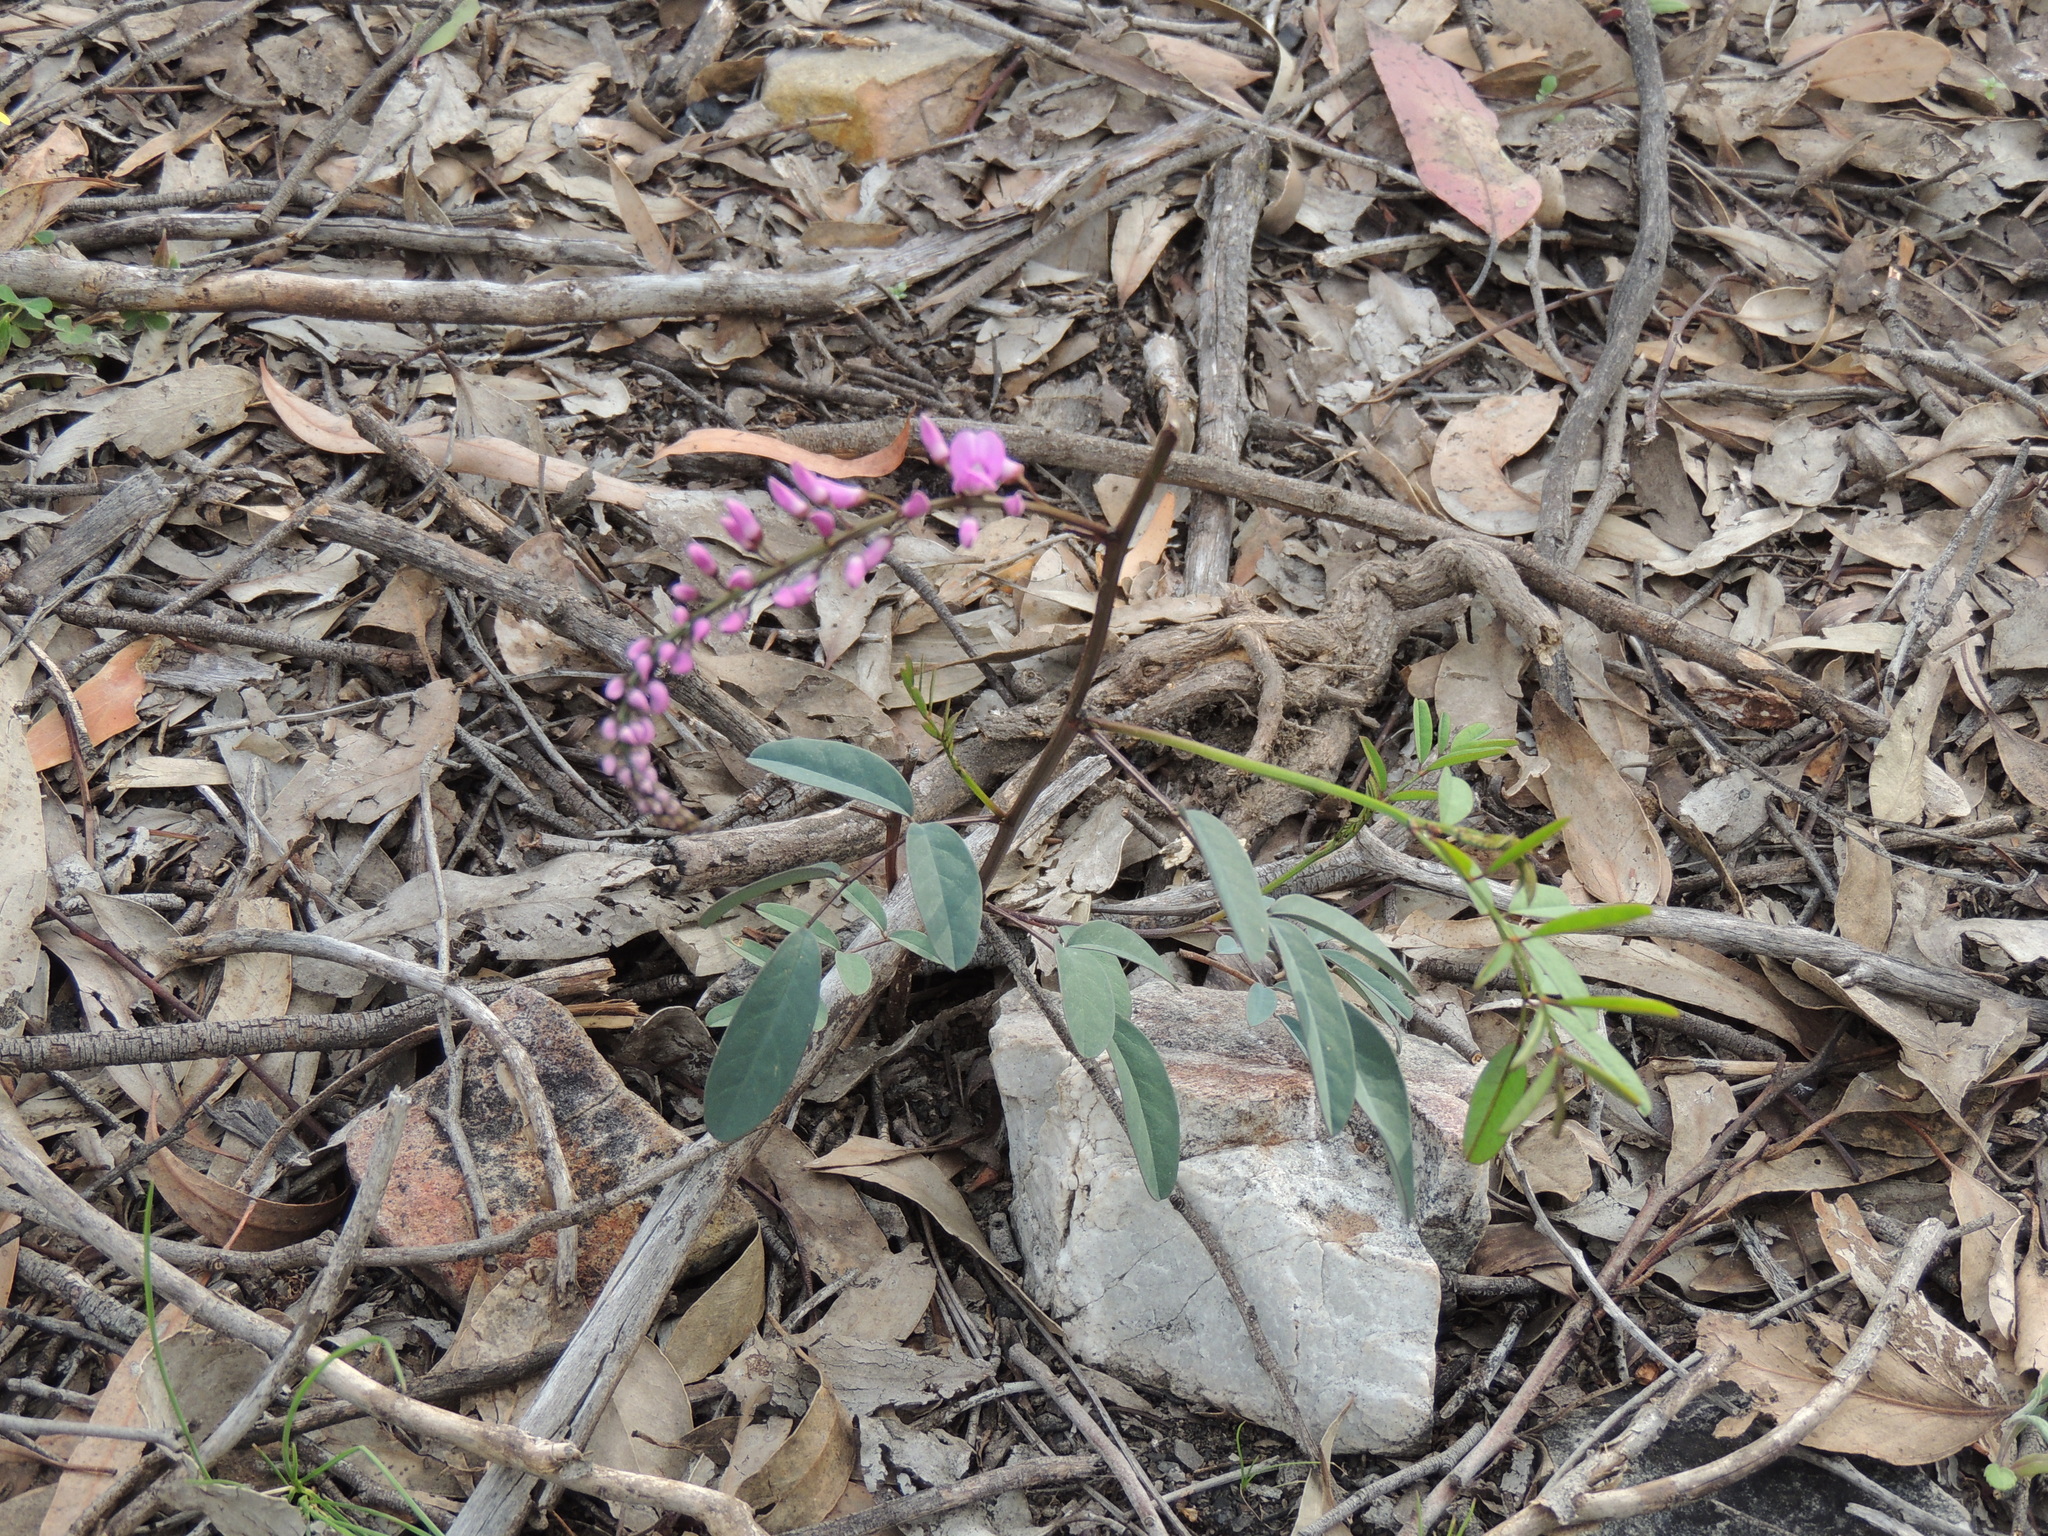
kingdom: Plantae
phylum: Tracheophyta
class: Magnoliopsida
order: Fabales
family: Fabaceae
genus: Indigofera
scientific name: Indigofera australis
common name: Australian indigo
